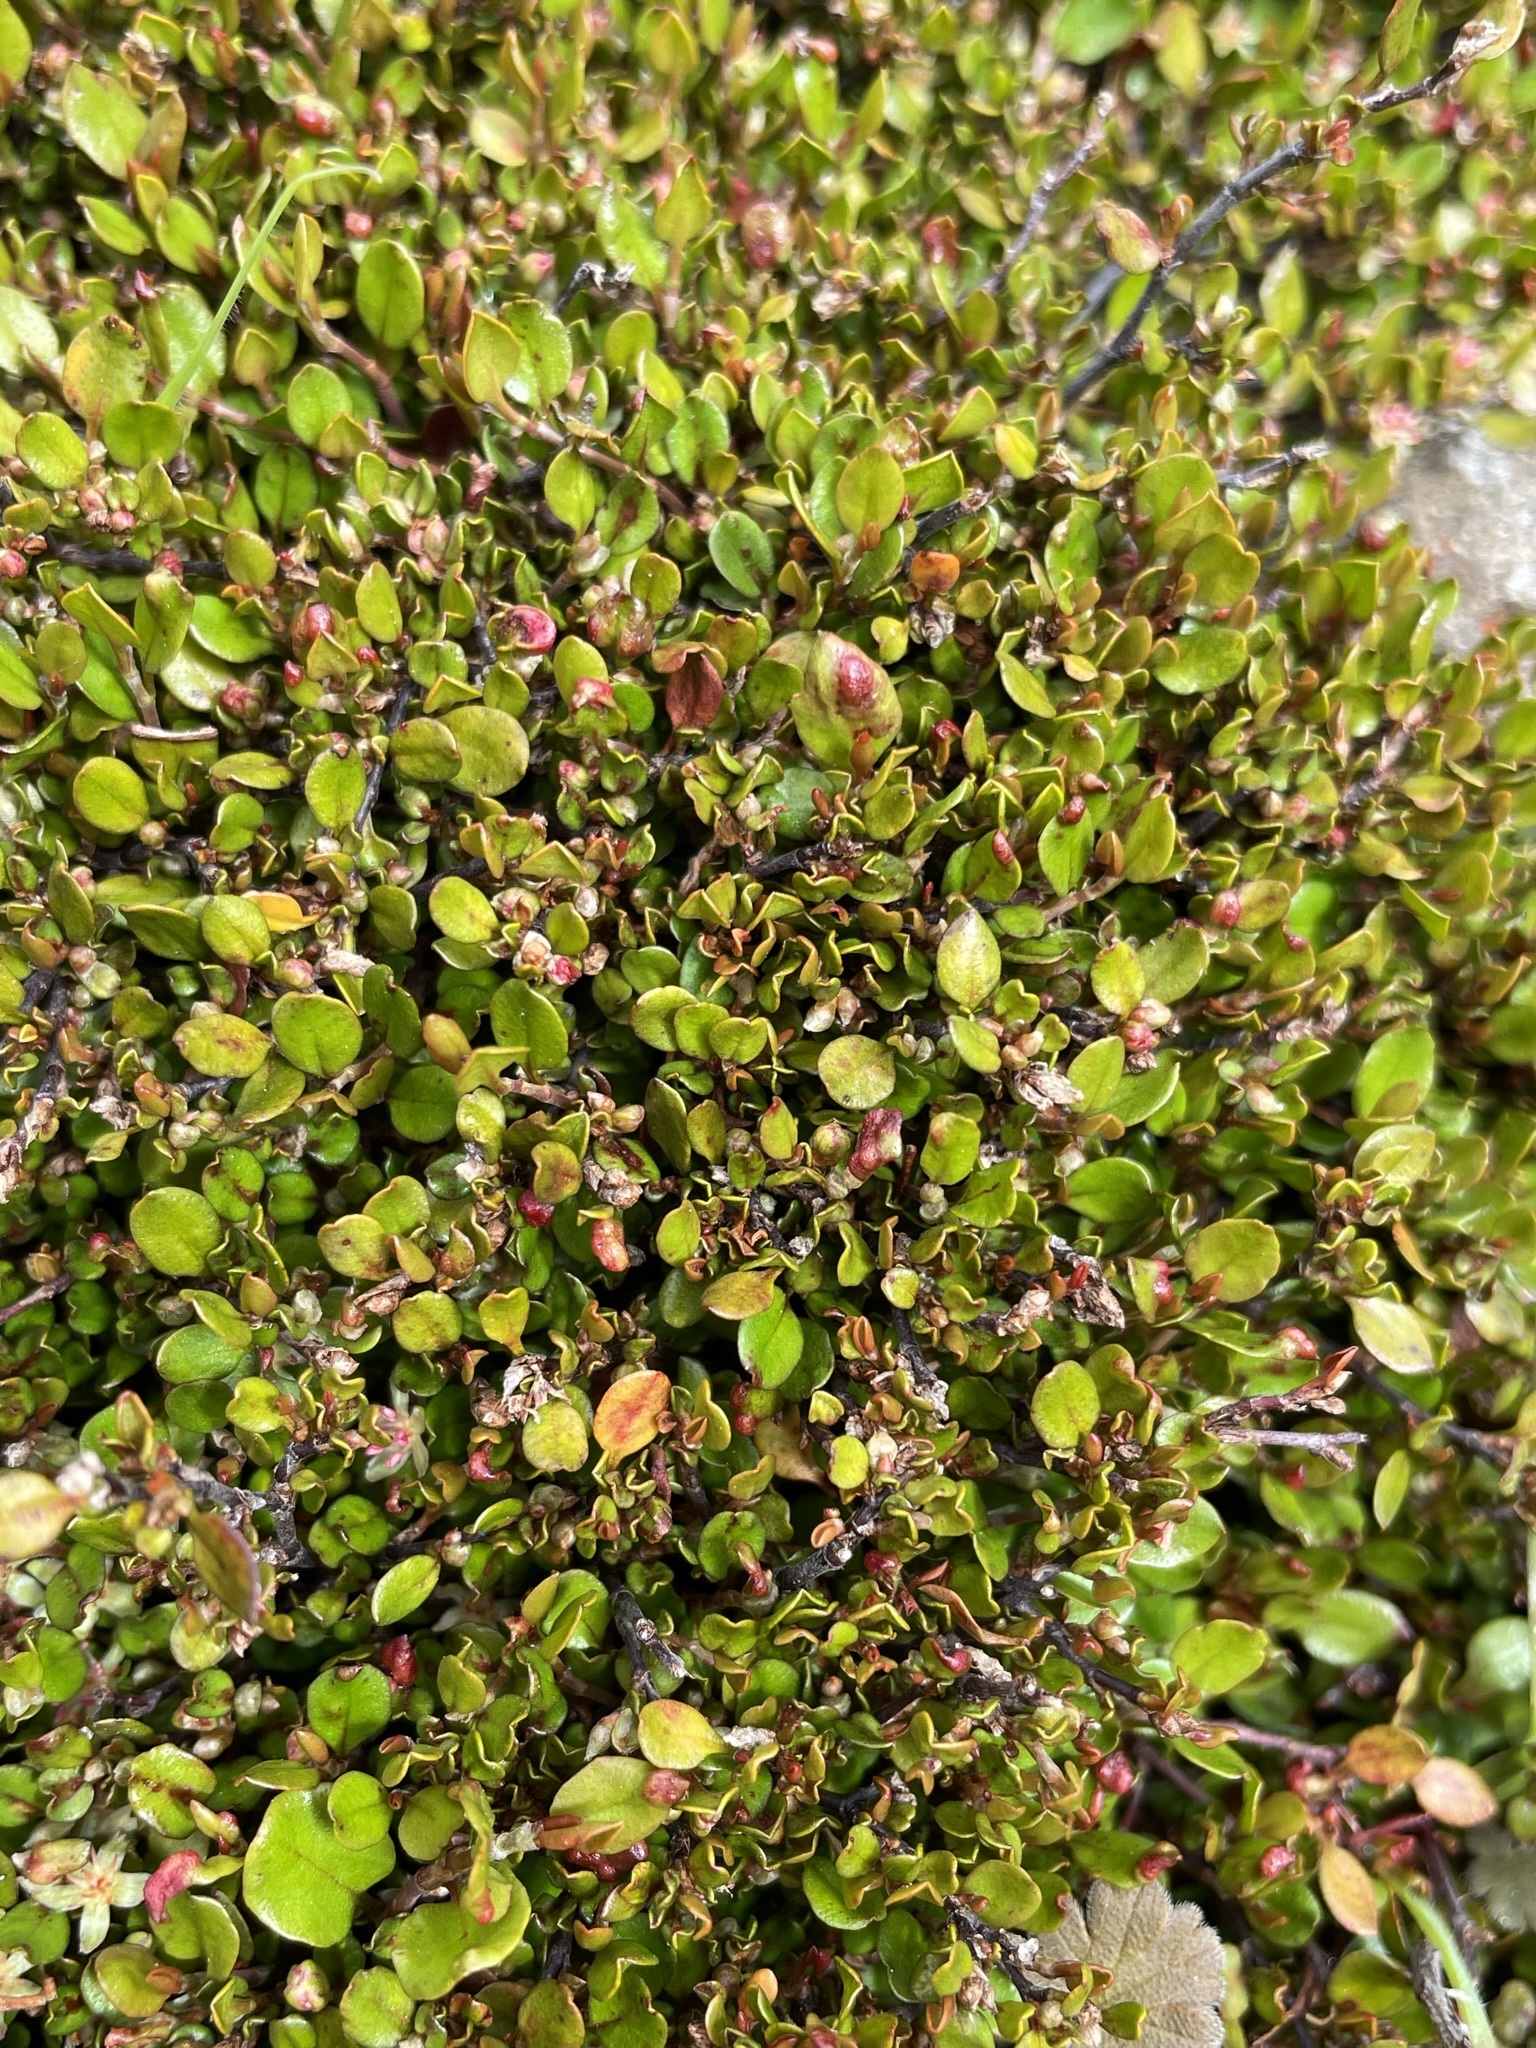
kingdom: Plantae
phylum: Tracheophyta
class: Magnoliopsida
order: Caryophyllales
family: Polygonaceae
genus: Muehlenbeckia
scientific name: Muehlenbeckia axillaris
